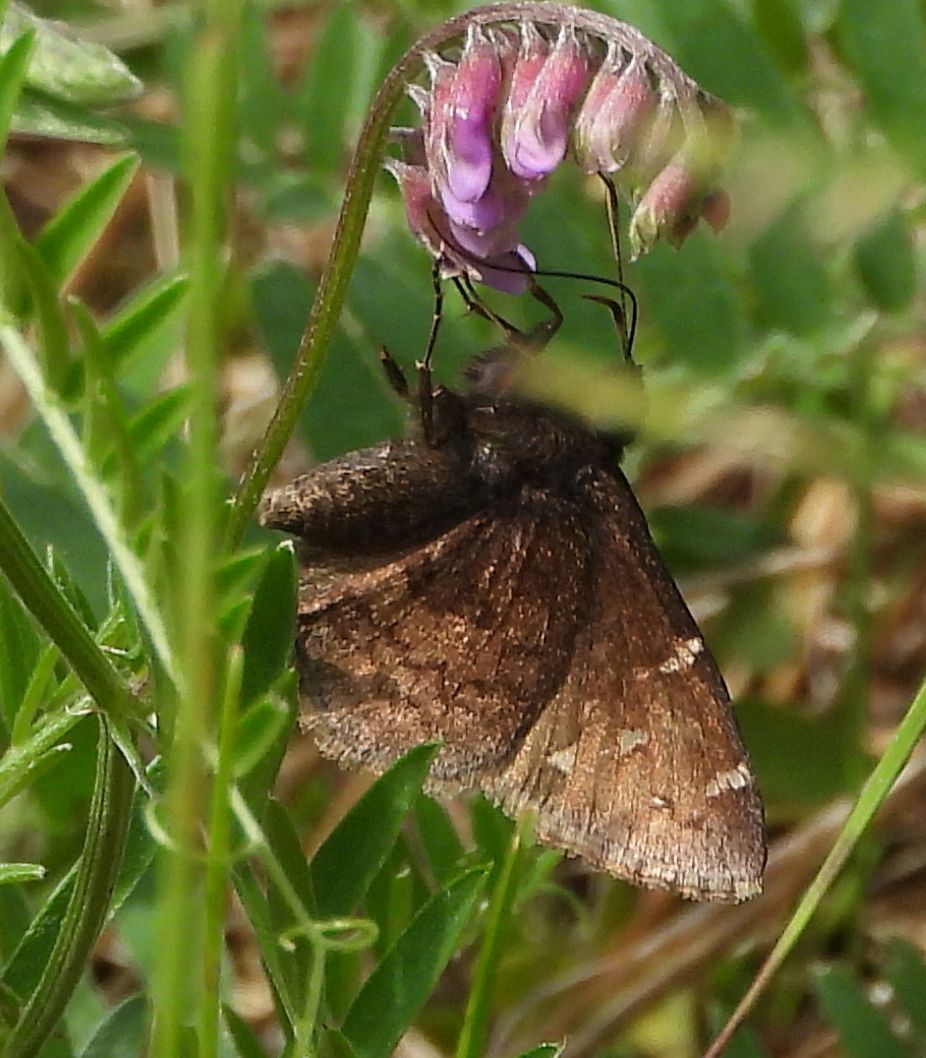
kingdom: Animalia
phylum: Arthropoda
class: Insecta
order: Lepidoptera
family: Hesperiidae
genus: Thorybes
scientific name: Thorybes pylades
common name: Northern cloudywing
